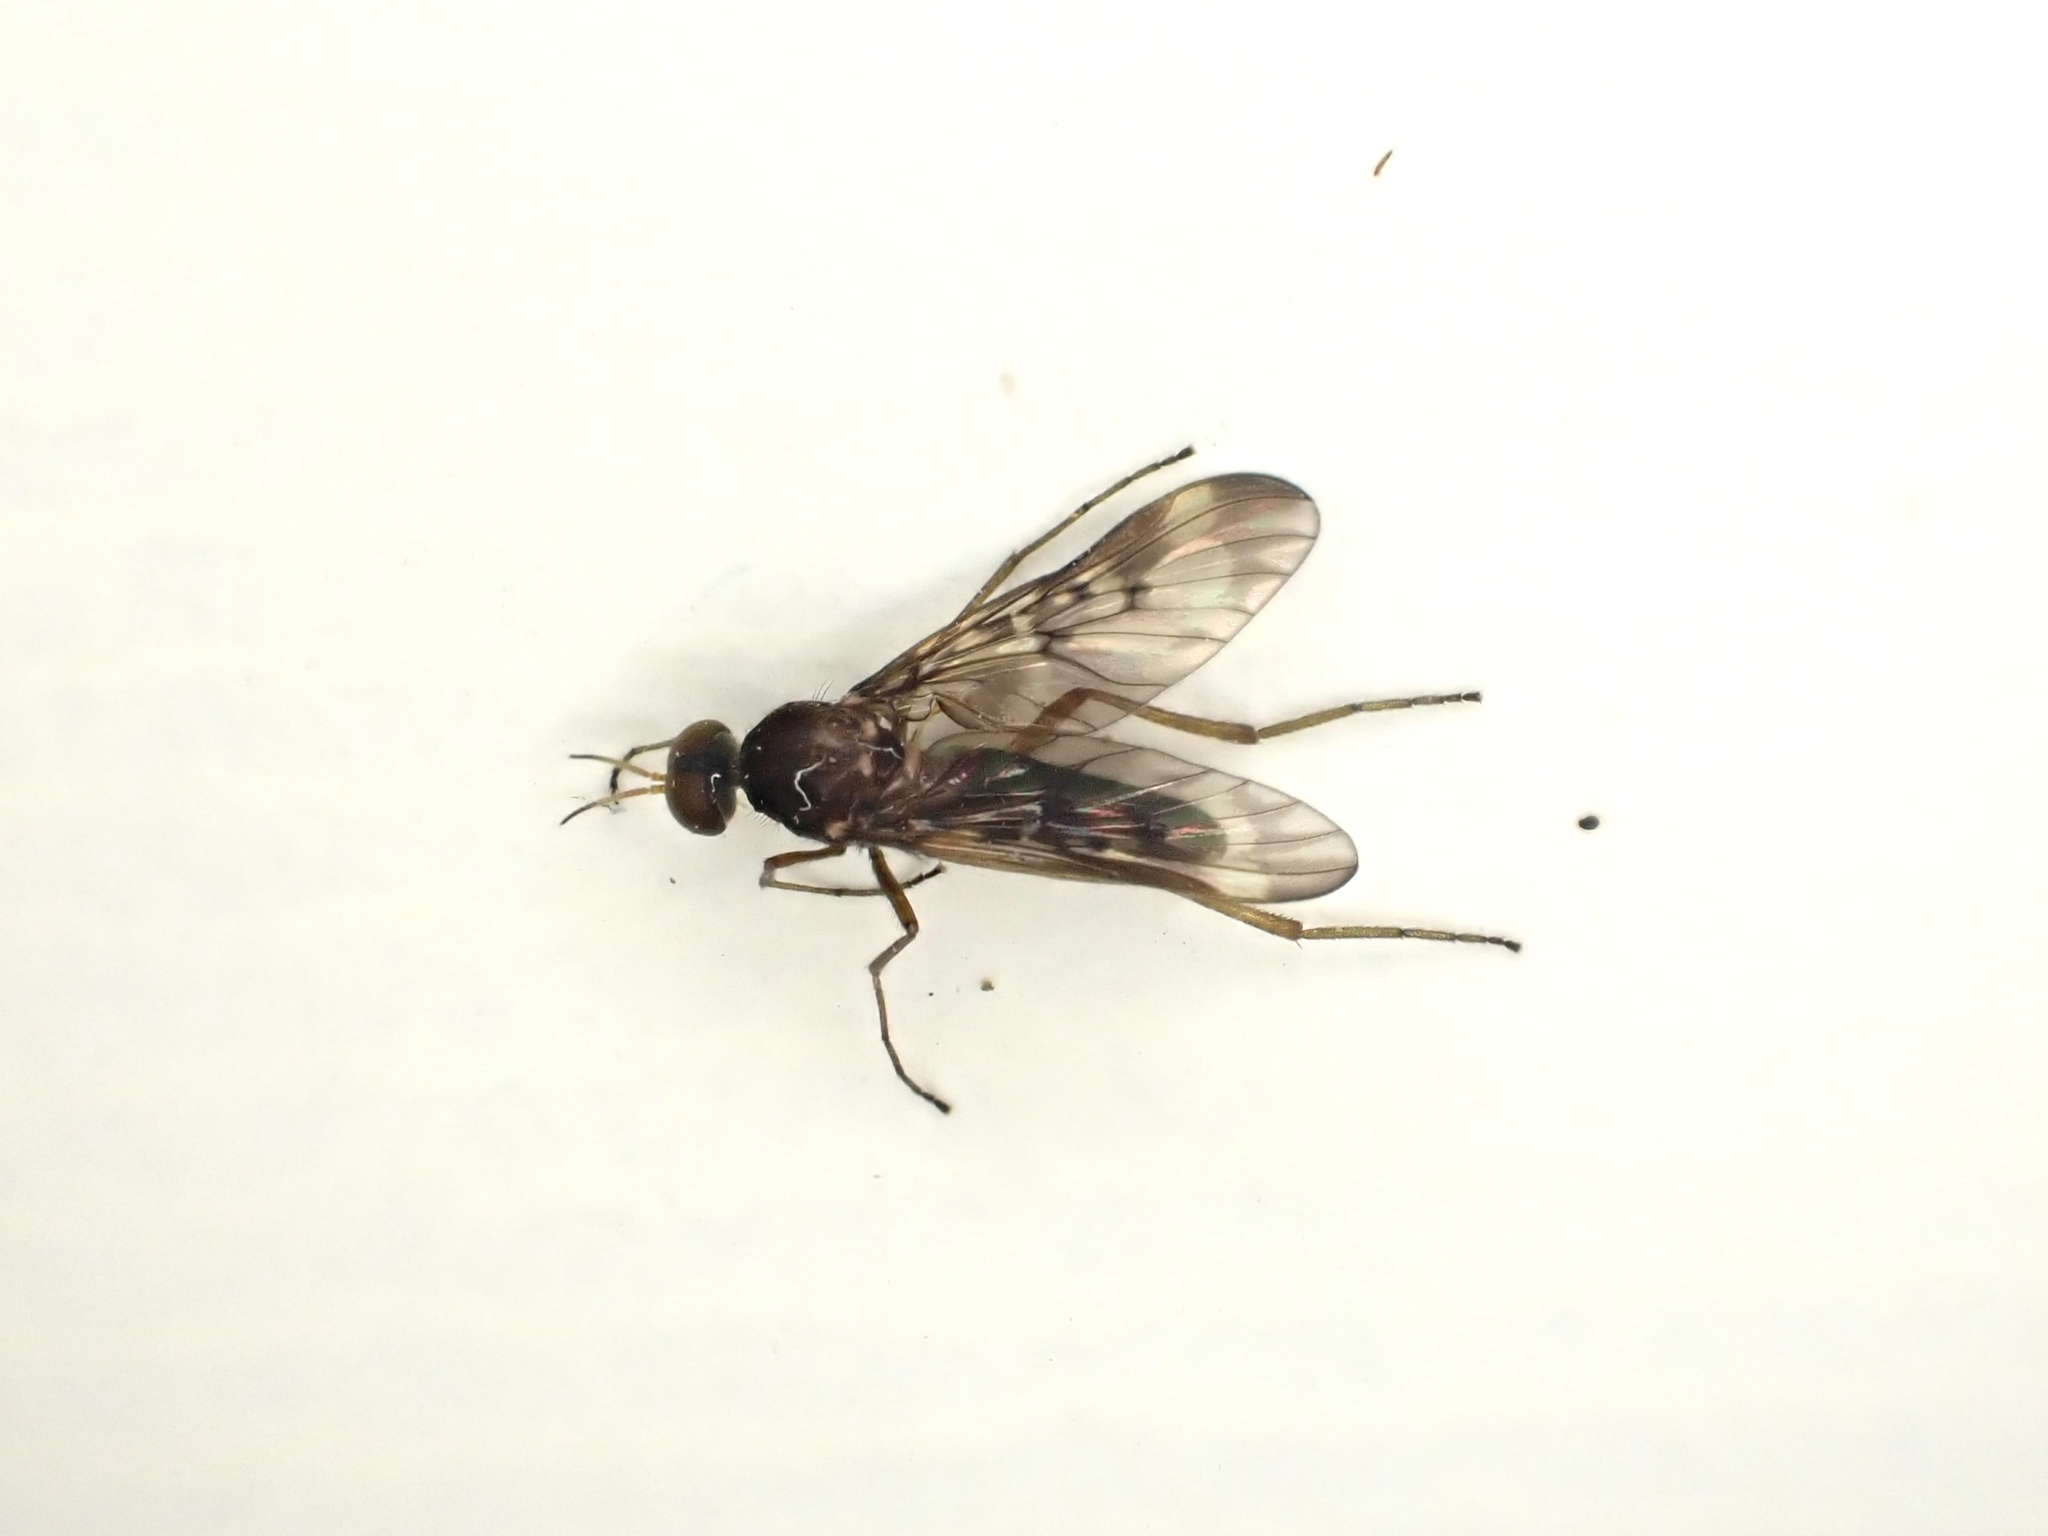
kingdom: Animalia
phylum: Arthropoda
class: Insecta
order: Diptera
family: Anisopodidae
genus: Sylvicola
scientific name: Sylvicola neozelandicus
